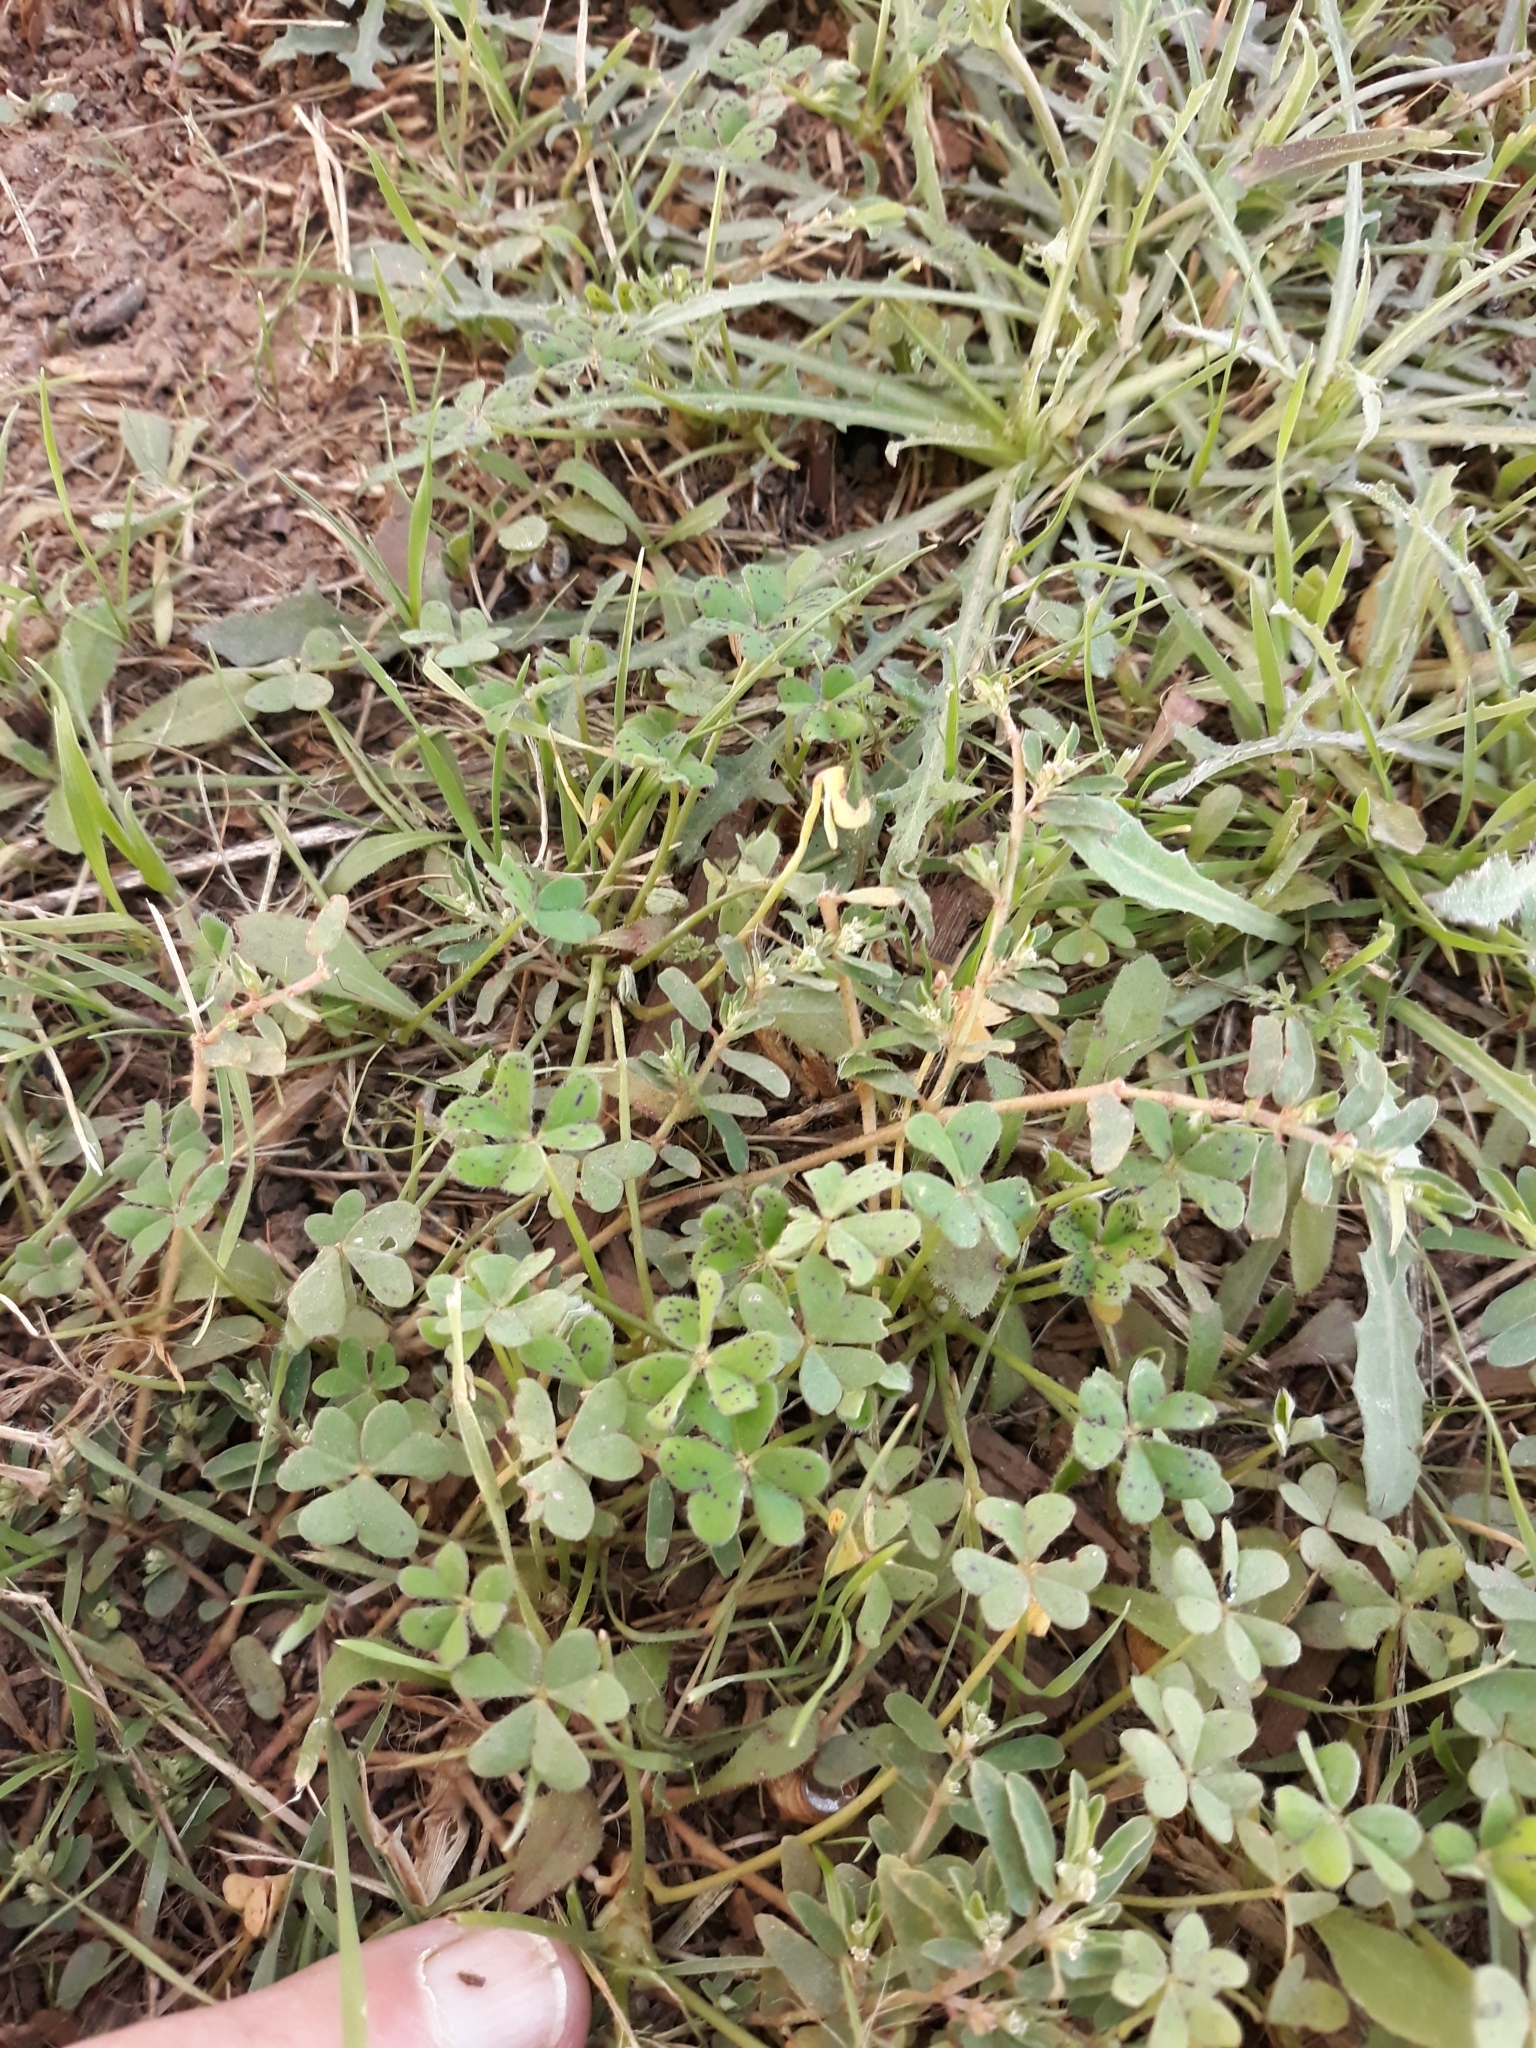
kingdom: Plantae
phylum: Tracheophyta
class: Magnoliopsida
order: Oxalidales
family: Oxalidaceae
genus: Oxalis
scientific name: Oxalis pes-caprae
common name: Bermuda-buttercup
